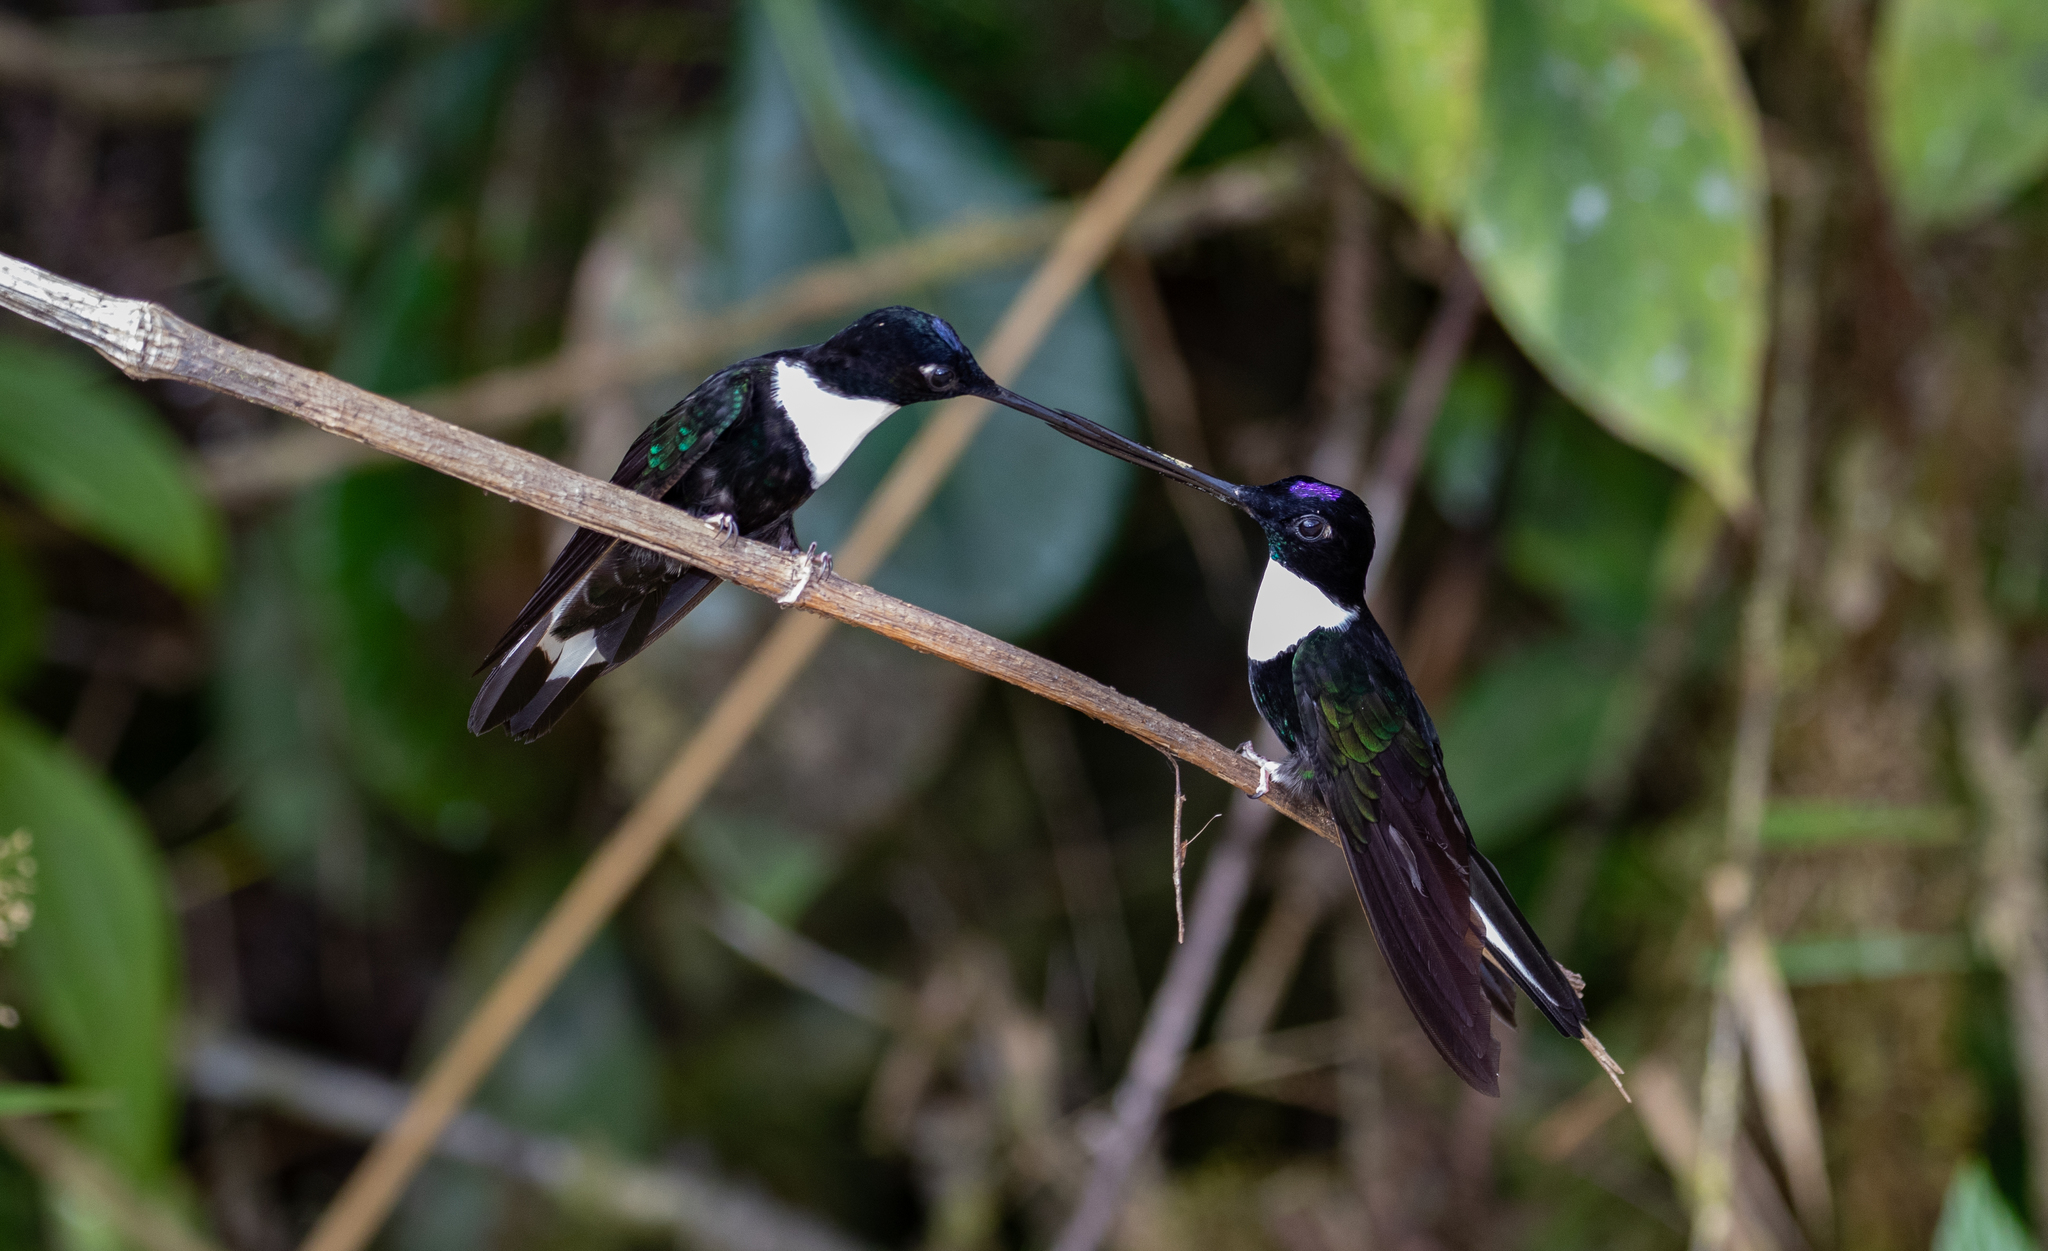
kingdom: Animalia
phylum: Chordata
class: Aves
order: Apodiformes
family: Trochilidae
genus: Coeligena
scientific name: Coeligena torquata
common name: Collared inca
